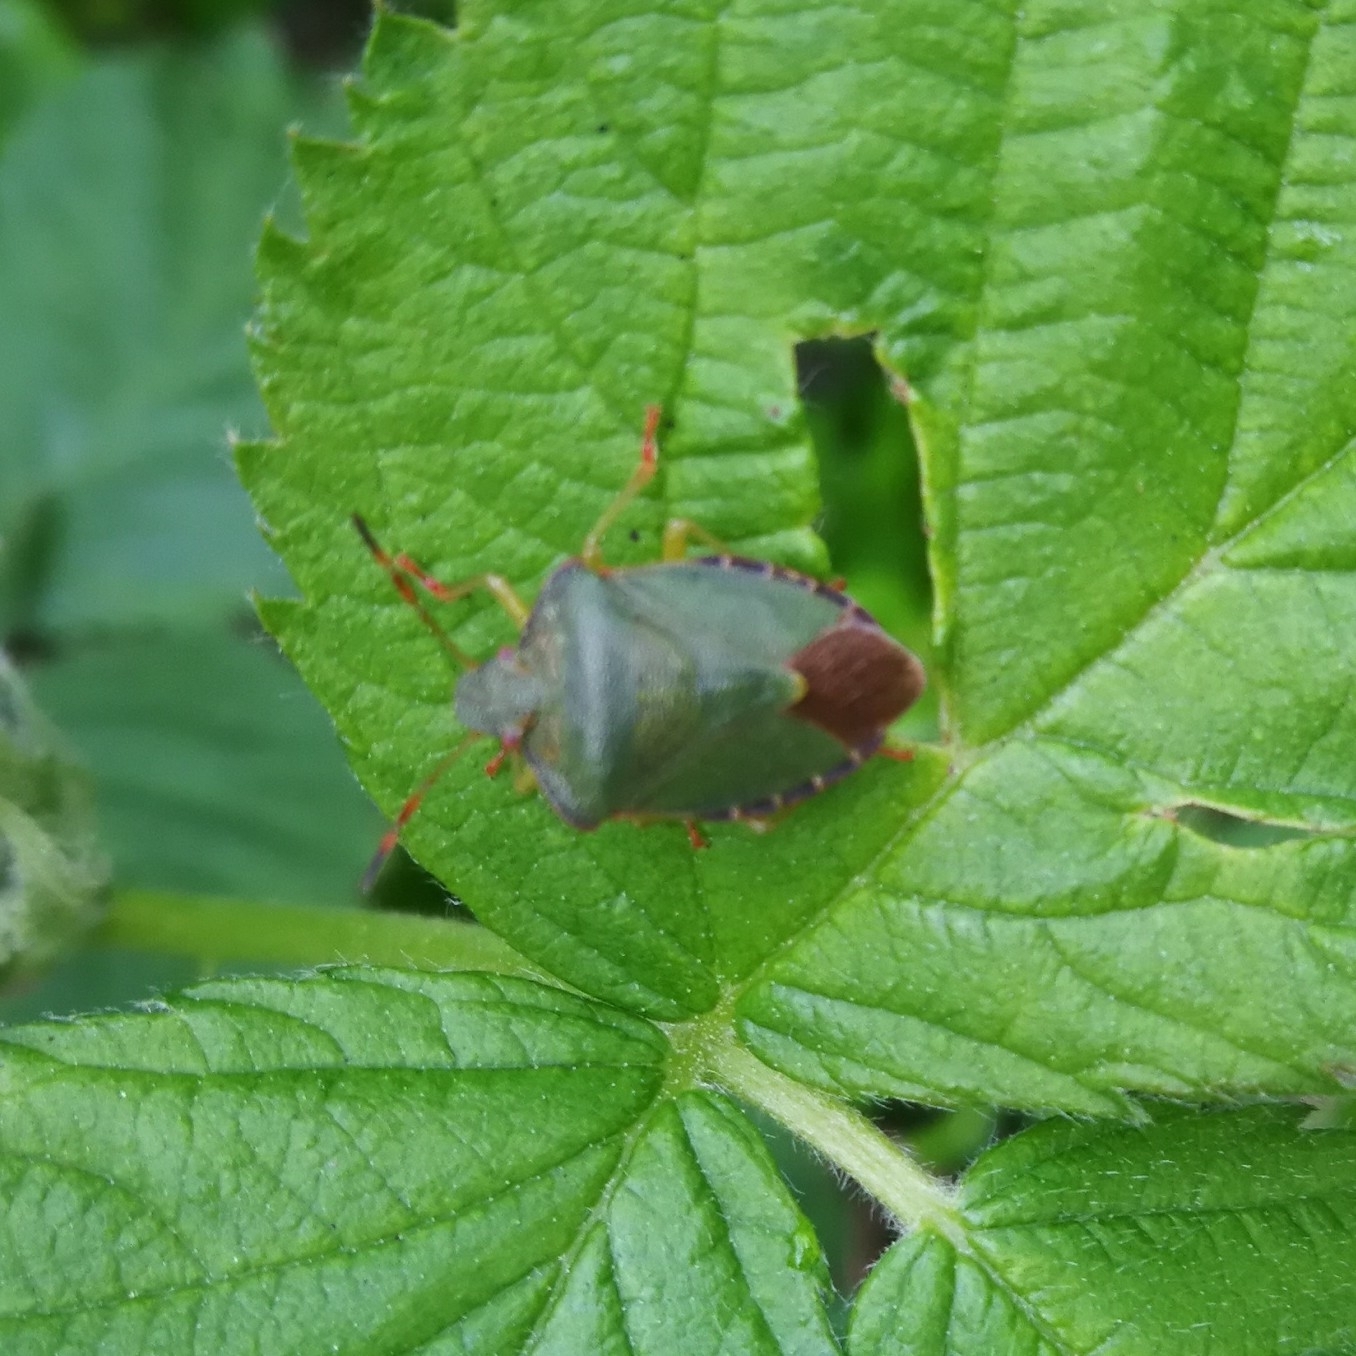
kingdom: Animalia
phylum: Arthropoda
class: Insecta
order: Hemiptera
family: Pentatomidae
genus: Palomena
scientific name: Palomena prasina
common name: Green shieldbug
